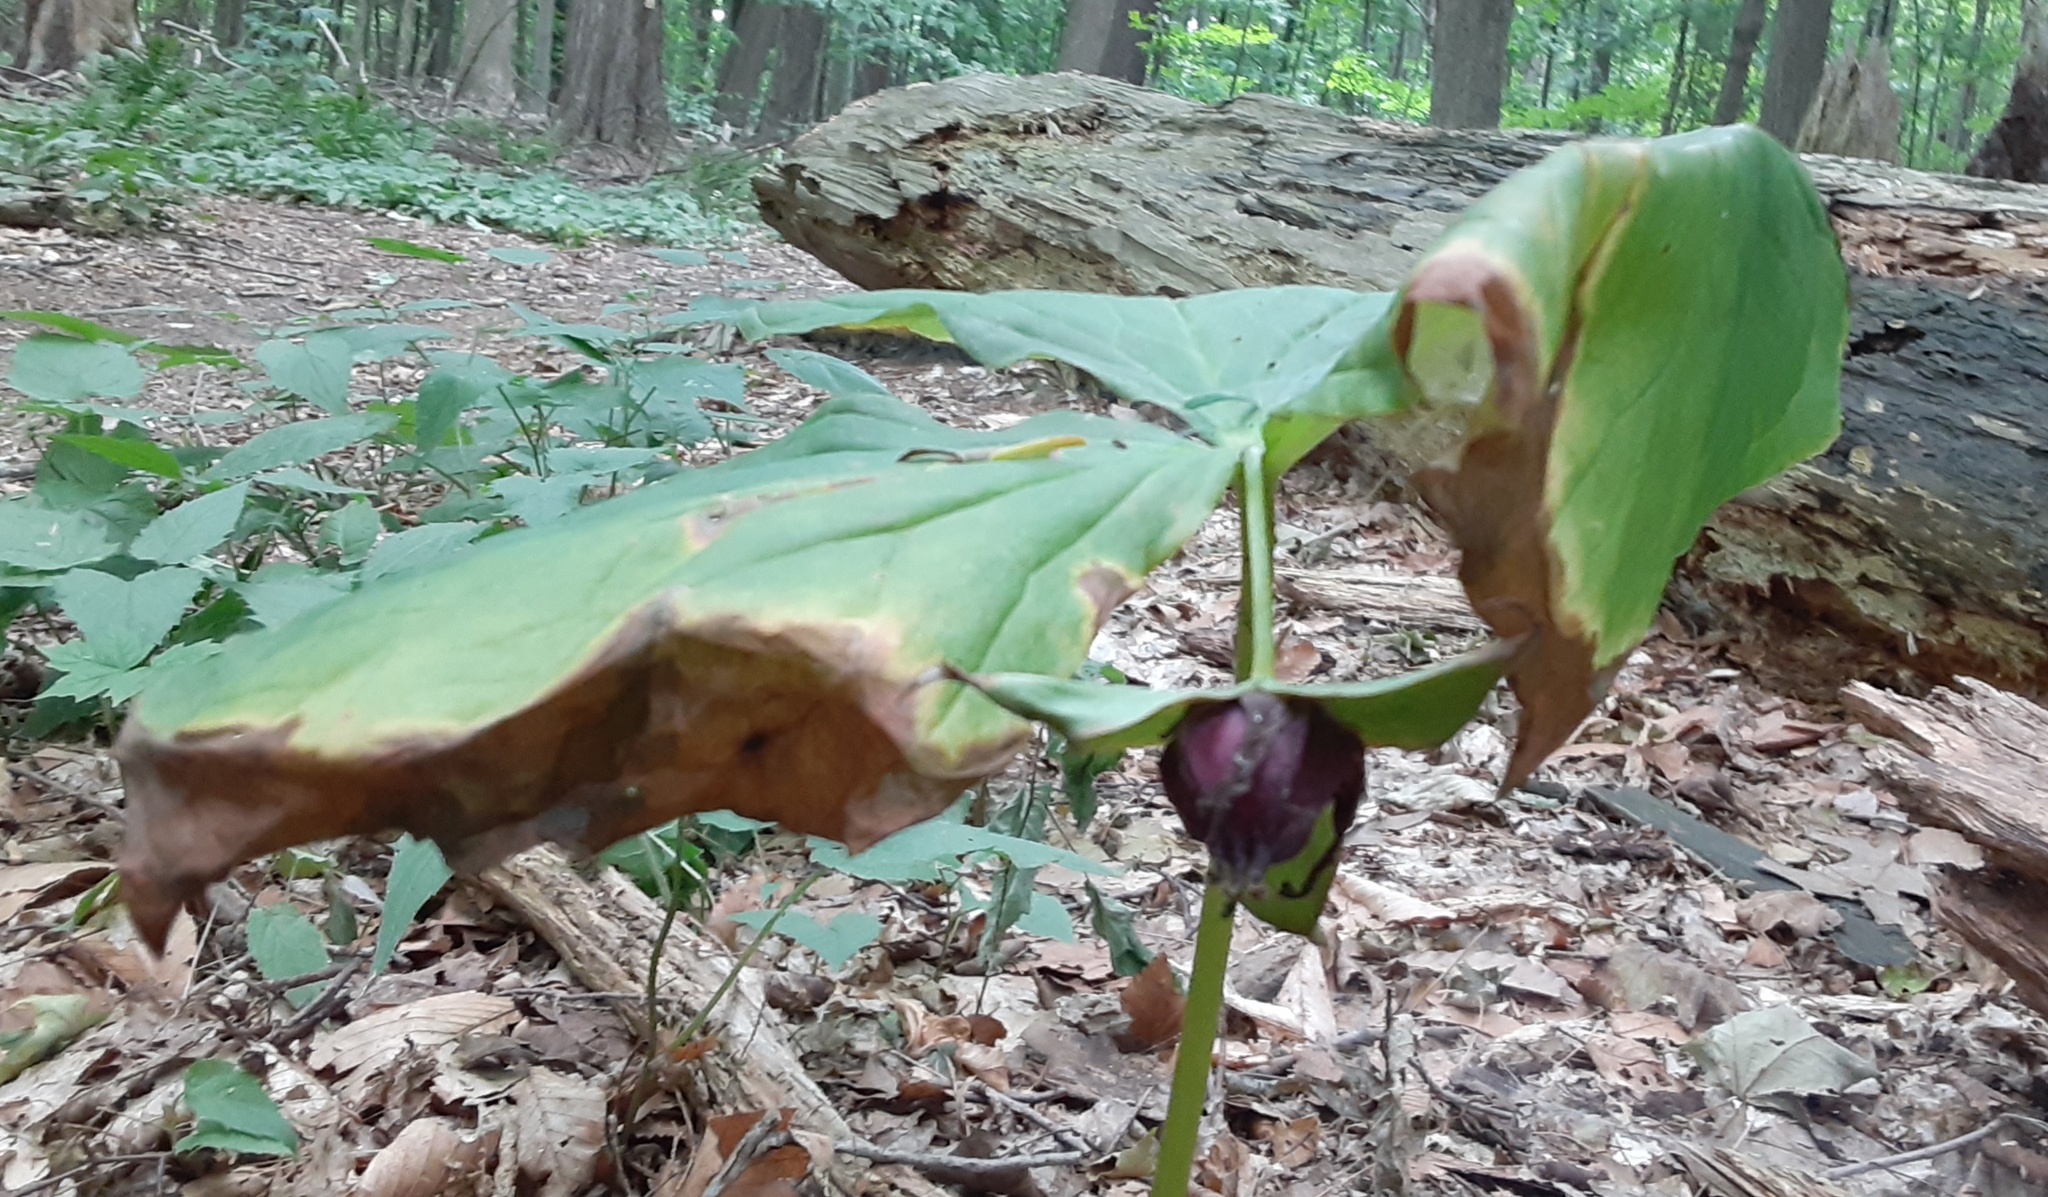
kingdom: Plantae
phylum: Tracheophyta
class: Liliopsida
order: Liliales
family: Melanthiaceae
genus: Trillium
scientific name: Trillium erectum
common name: Purple trillium
